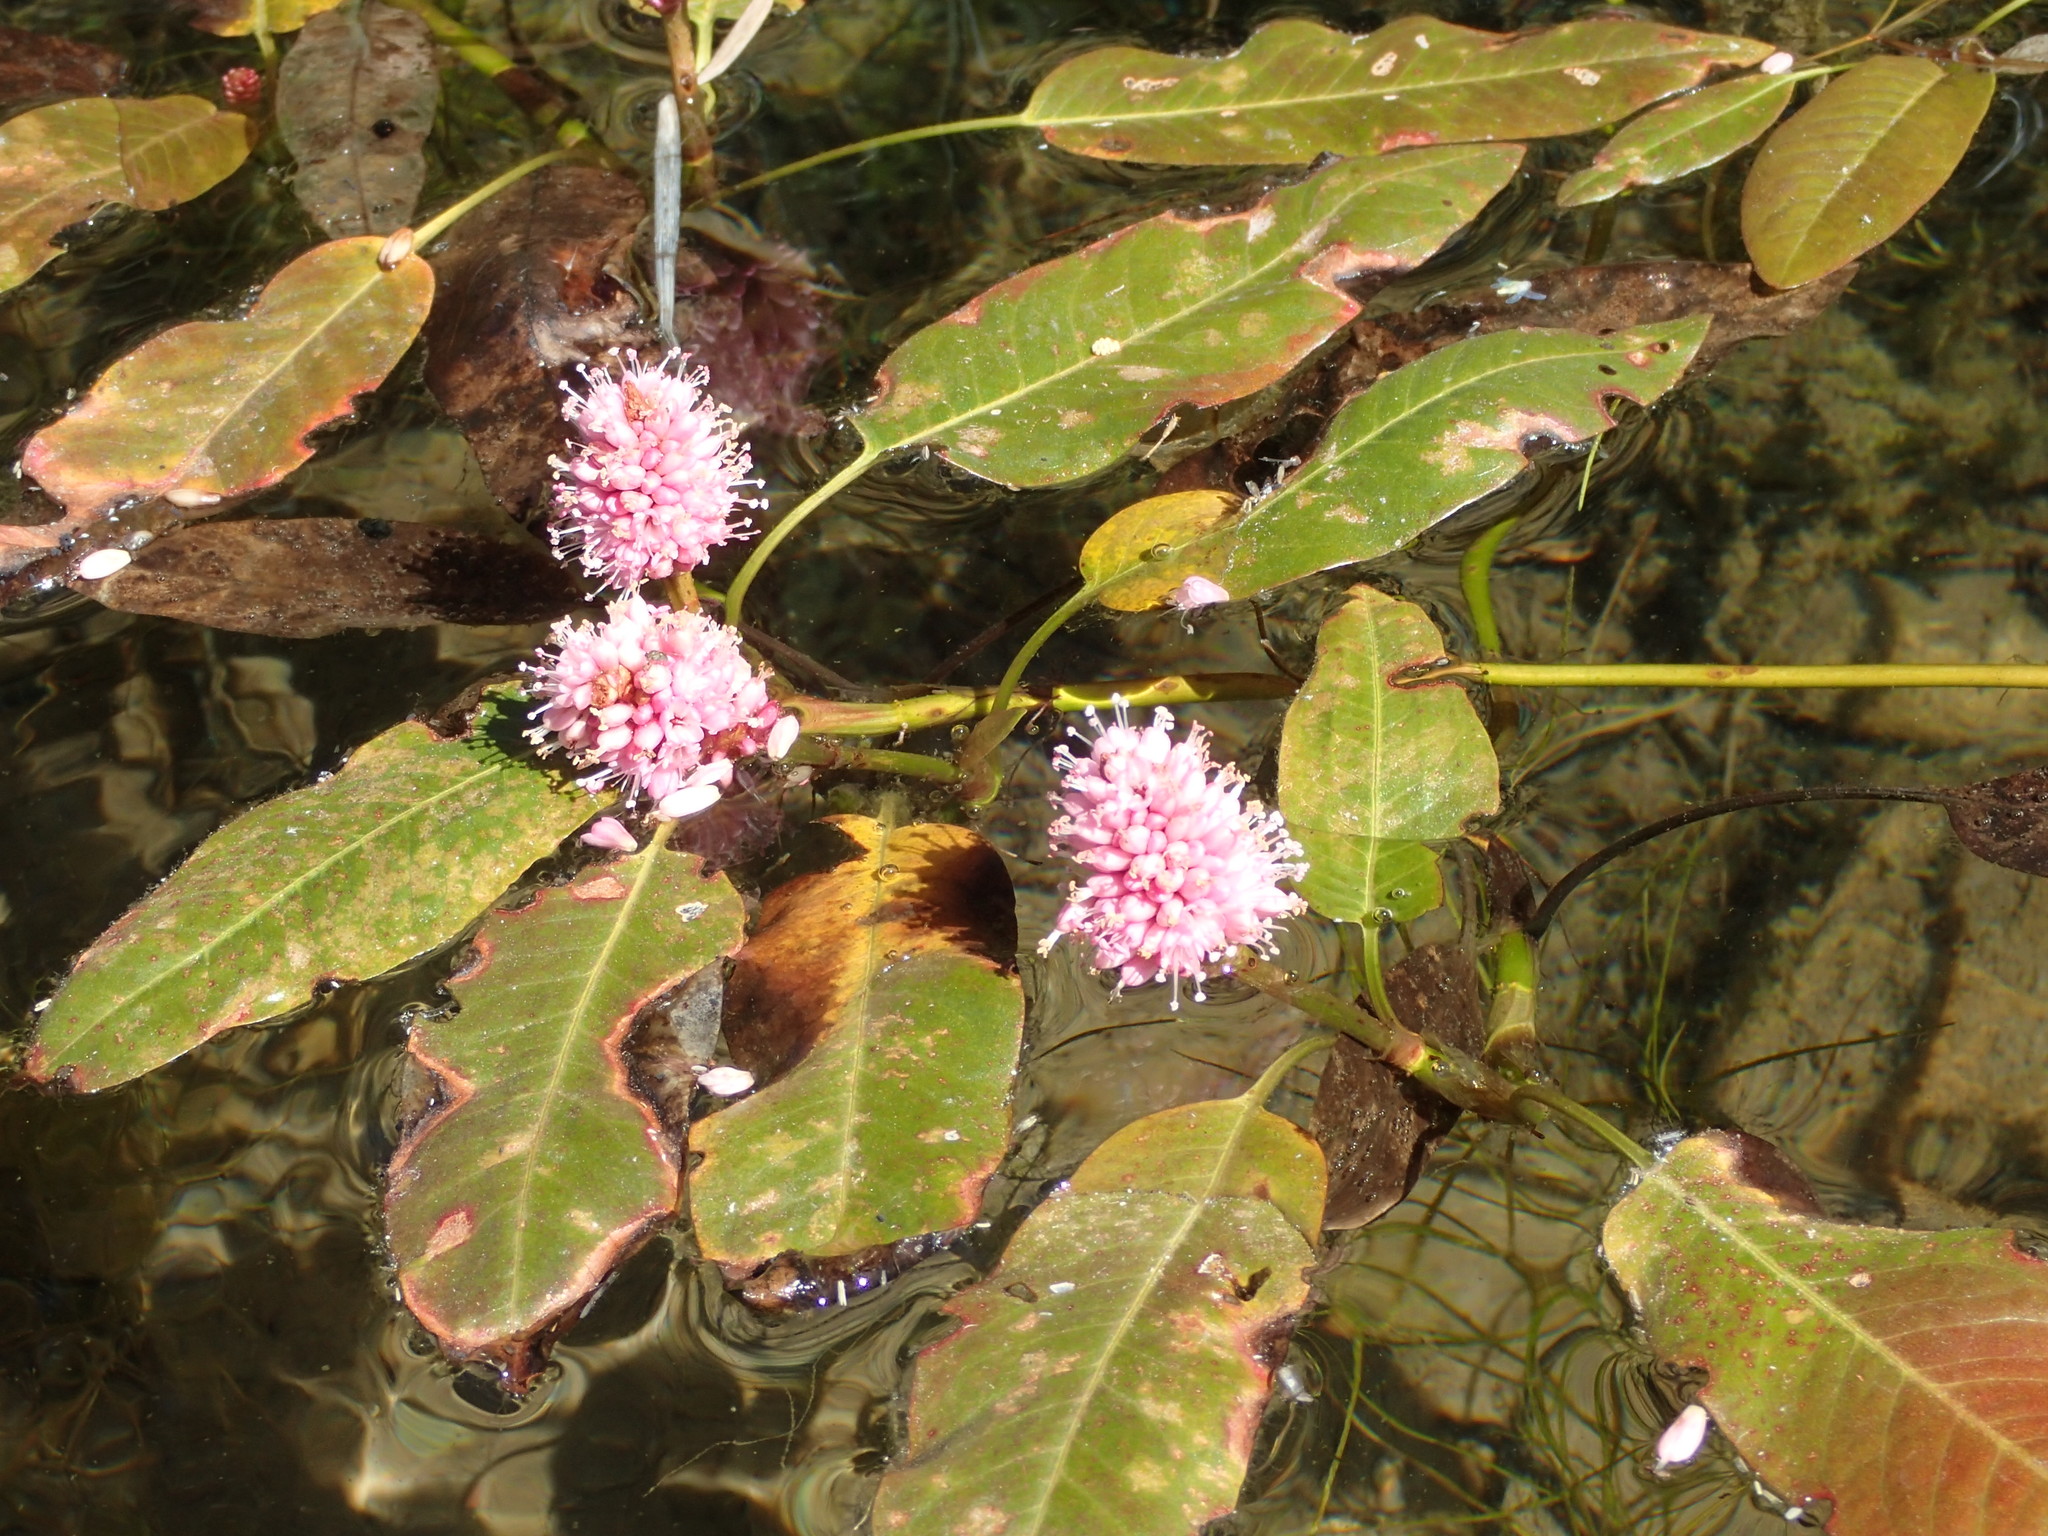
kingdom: Plantae
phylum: Tracheophyta
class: Magnoliopsida
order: Caryophyllales
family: Polygonaceae
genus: Persicaria
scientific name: Persicaria amphibia
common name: Amphibious bistort
